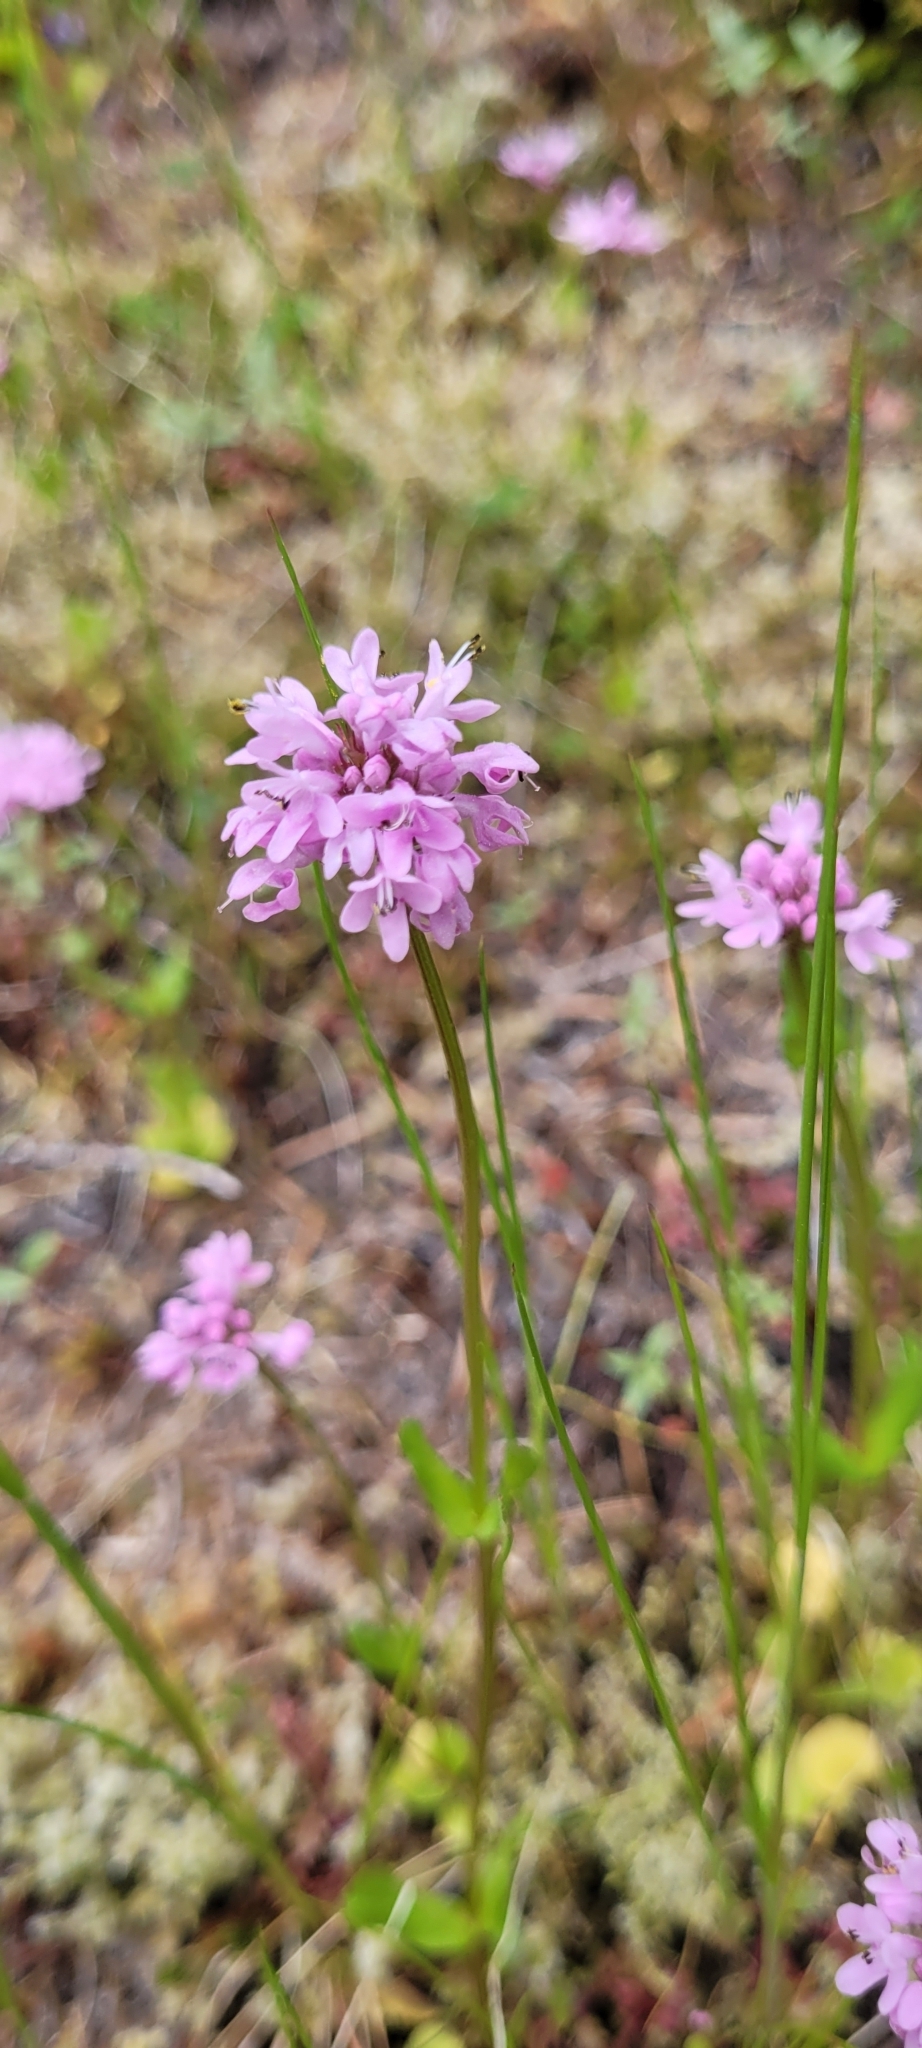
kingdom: Plantae
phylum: Tracheophyta
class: Magnoliopsida
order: Dipsacales
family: Caprifoliaceae
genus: Plectritis
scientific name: Plectritis congesta
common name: Pink plectritis
